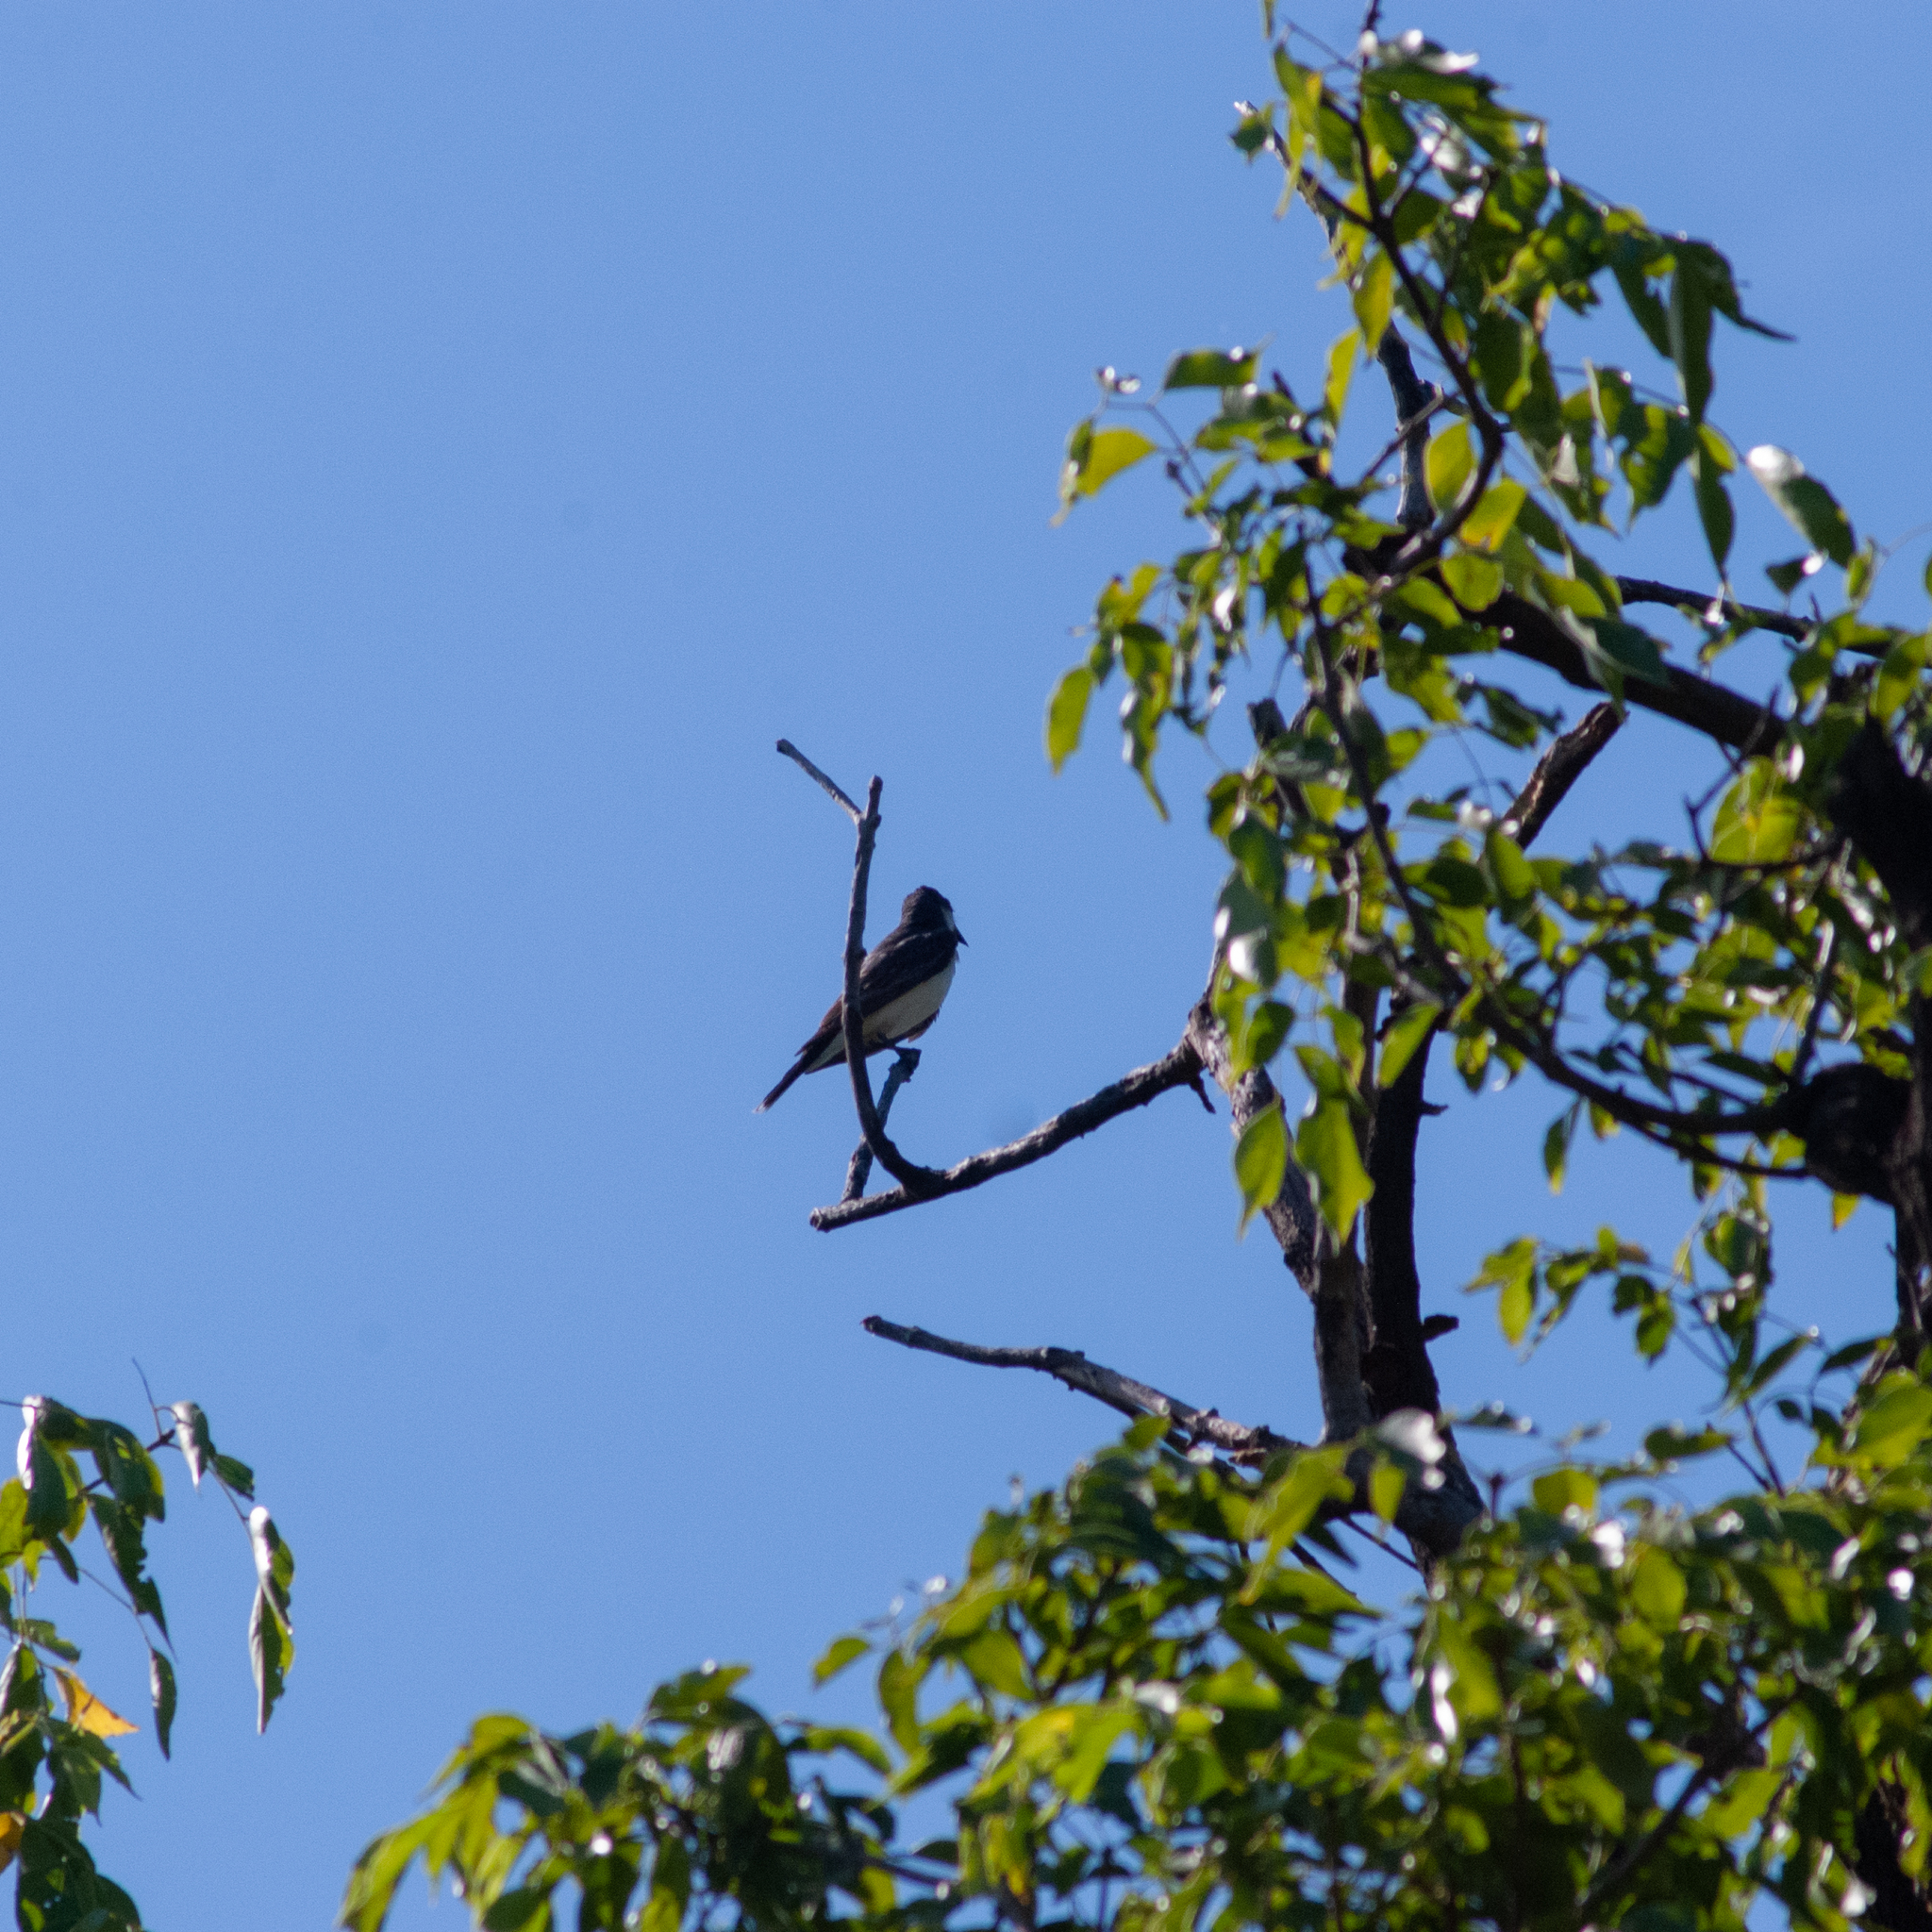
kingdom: Animalia
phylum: Chordata
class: Aves
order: Passeriformes
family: Tyrannidae
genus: Tyrannus
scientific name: Tyrannus tyrannus
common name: Eastern kingbird
